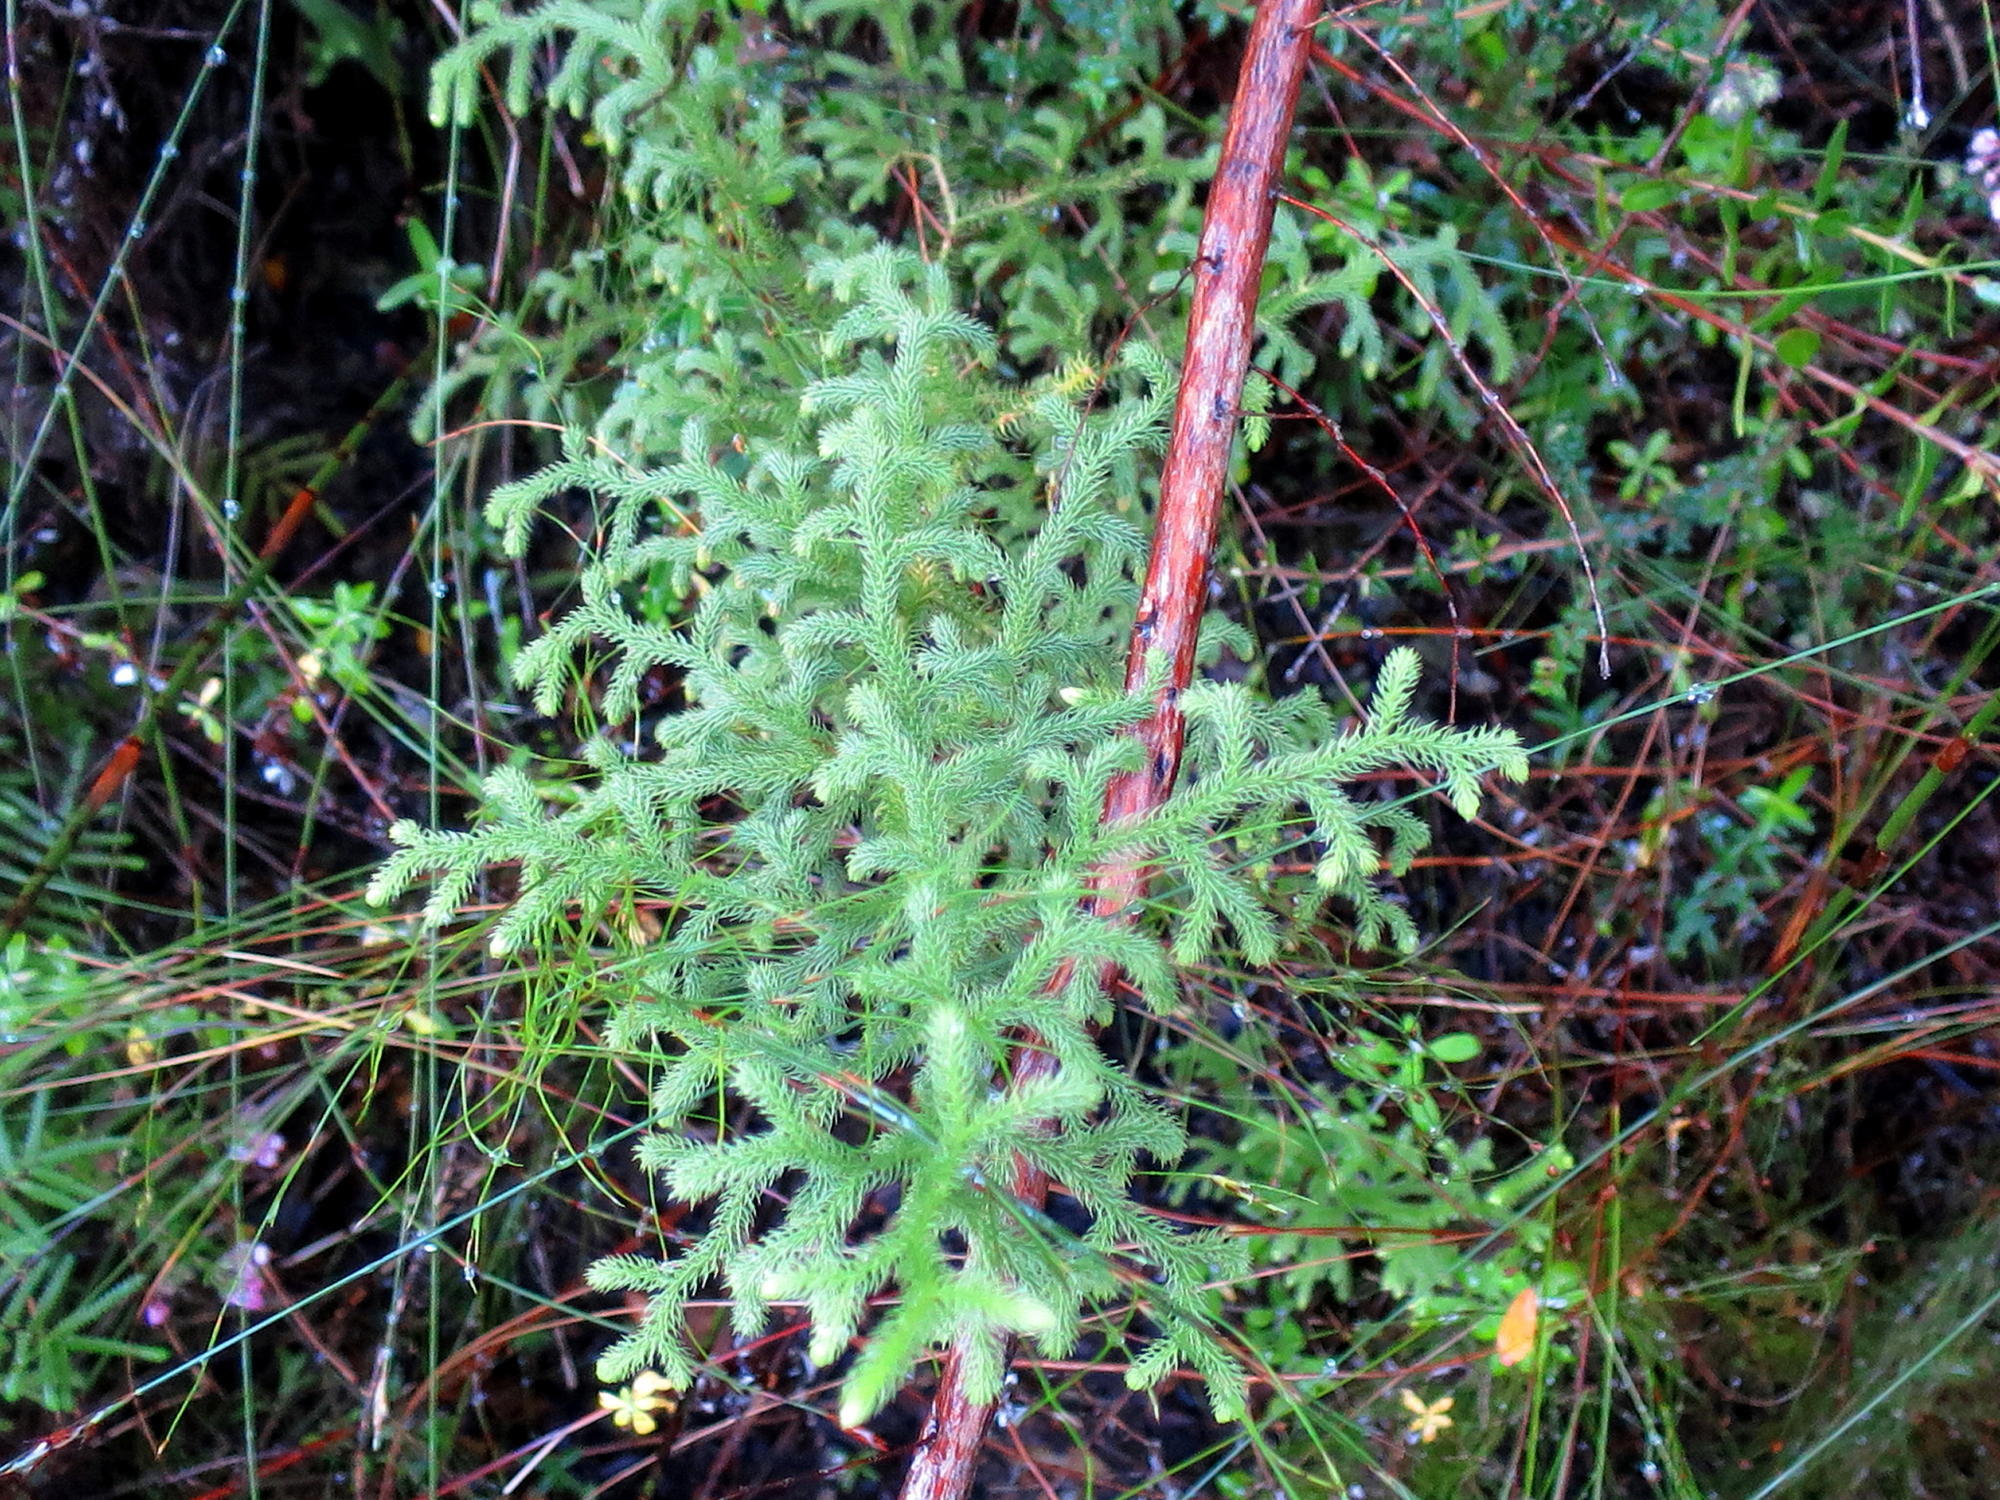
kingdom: Plantae
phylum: Tracheophyta
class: Lycopodiopsida
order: Lycopodiales
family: Lycopodiaceae
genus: Palhinhaea
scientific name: Palhinhaea cernua
